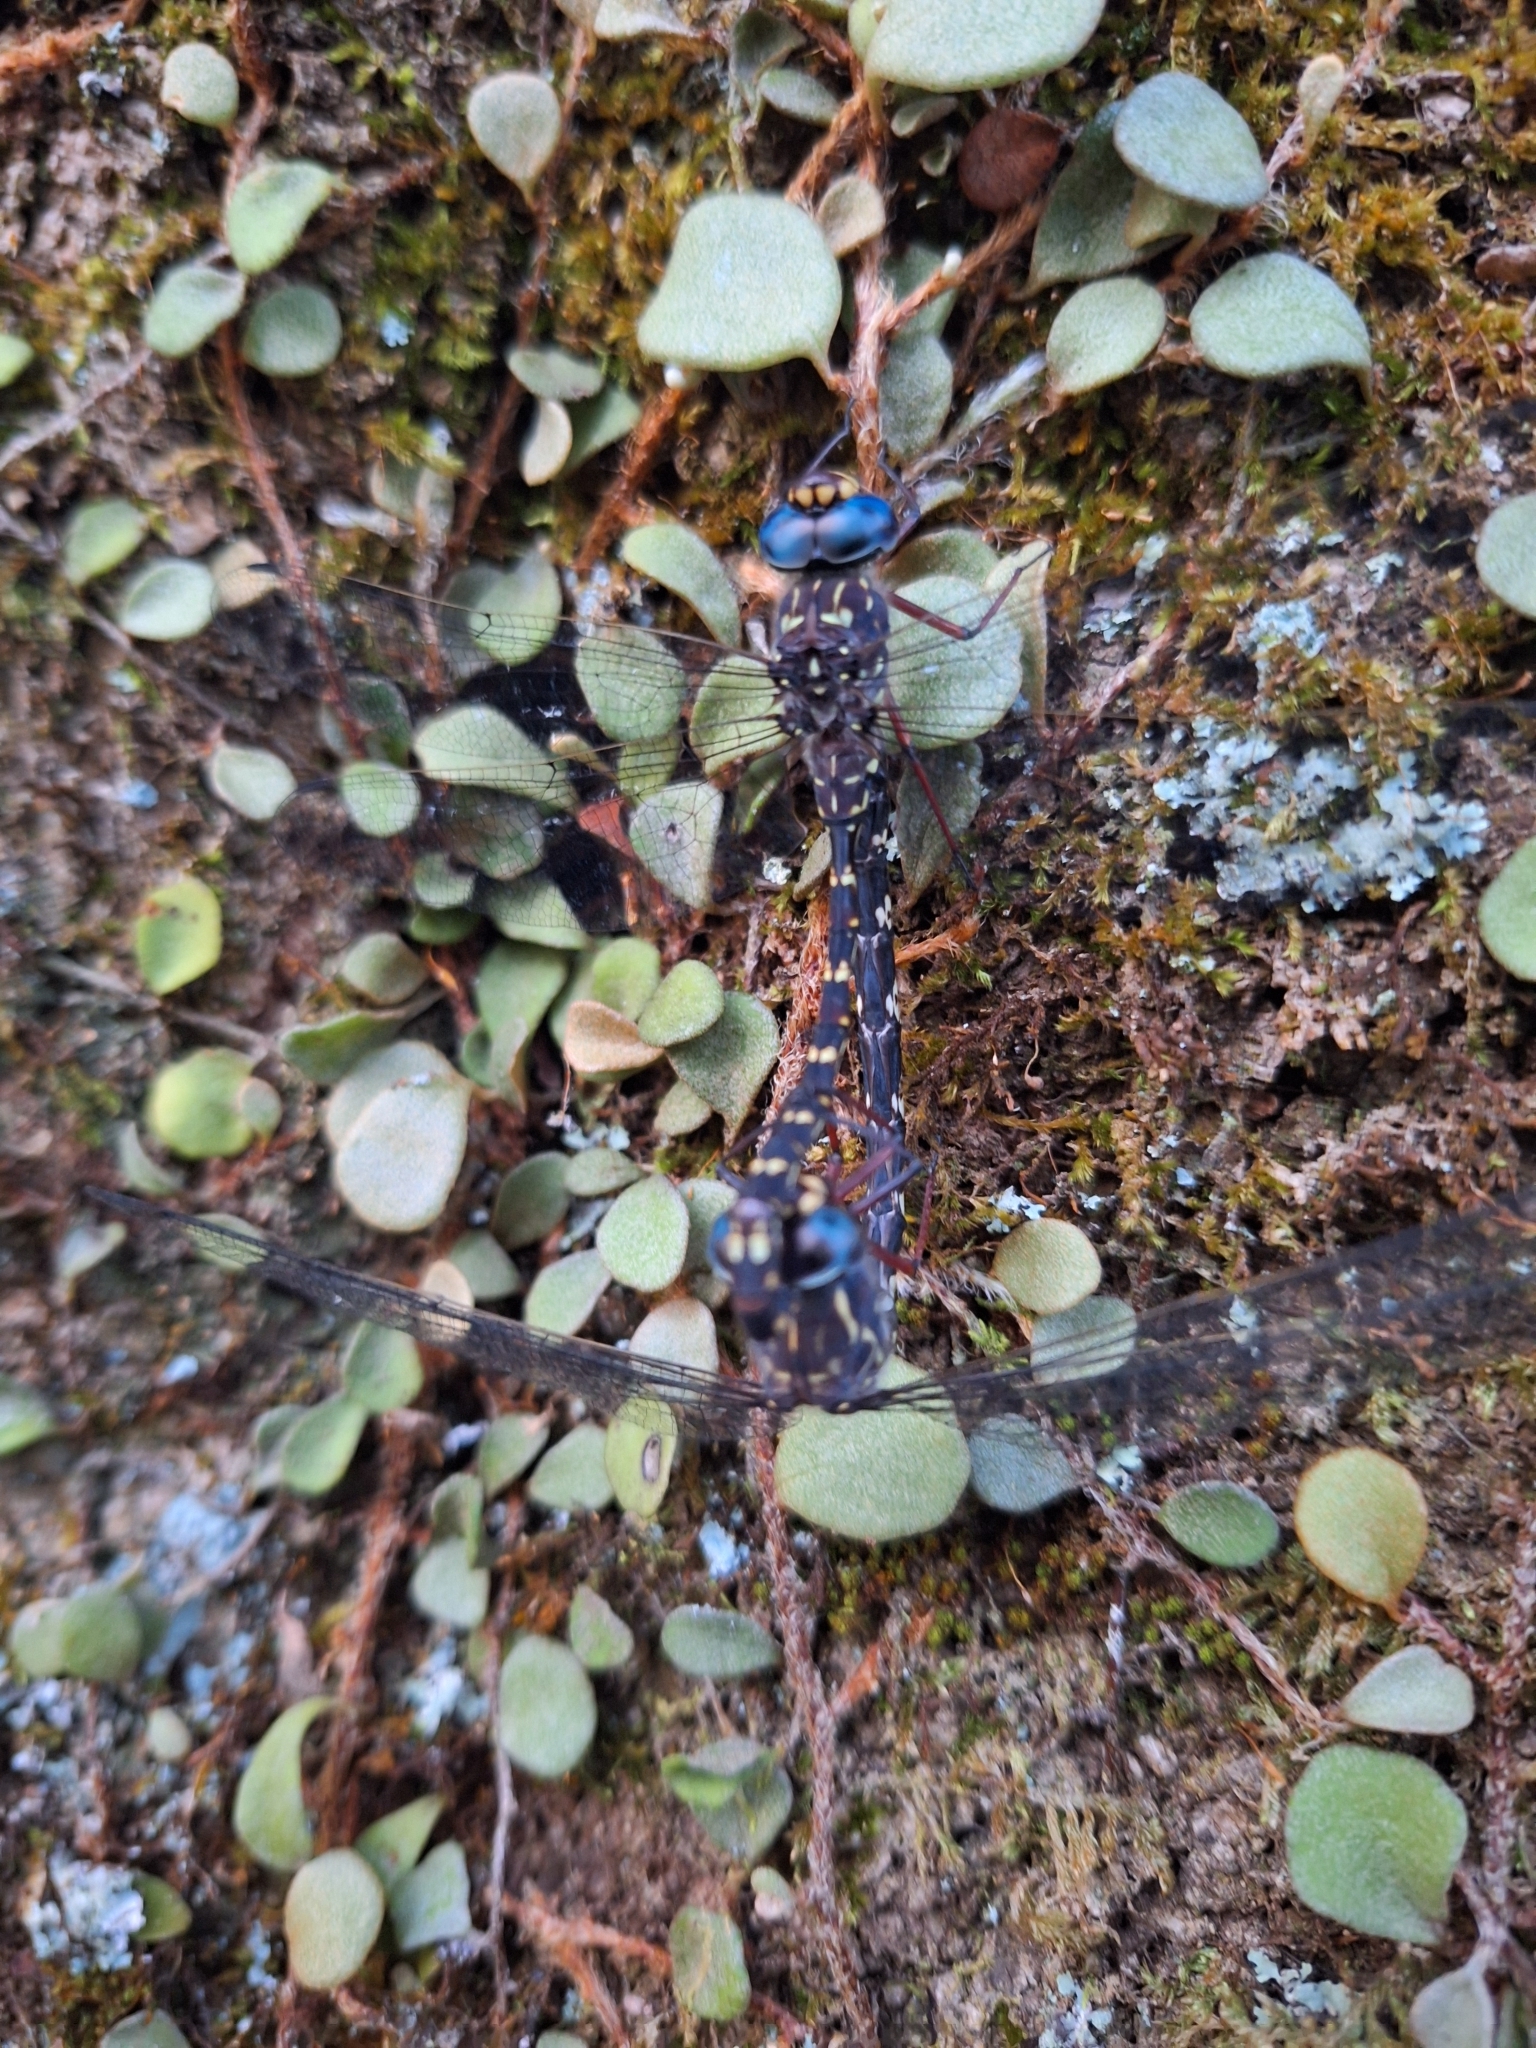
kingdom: Animalia
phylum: Arthropoda
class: Insecta
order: Odonata
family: Aeshnidae
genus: Austroaeschna
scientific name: Austroaeschna obscura
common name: Sydney mountain darner
